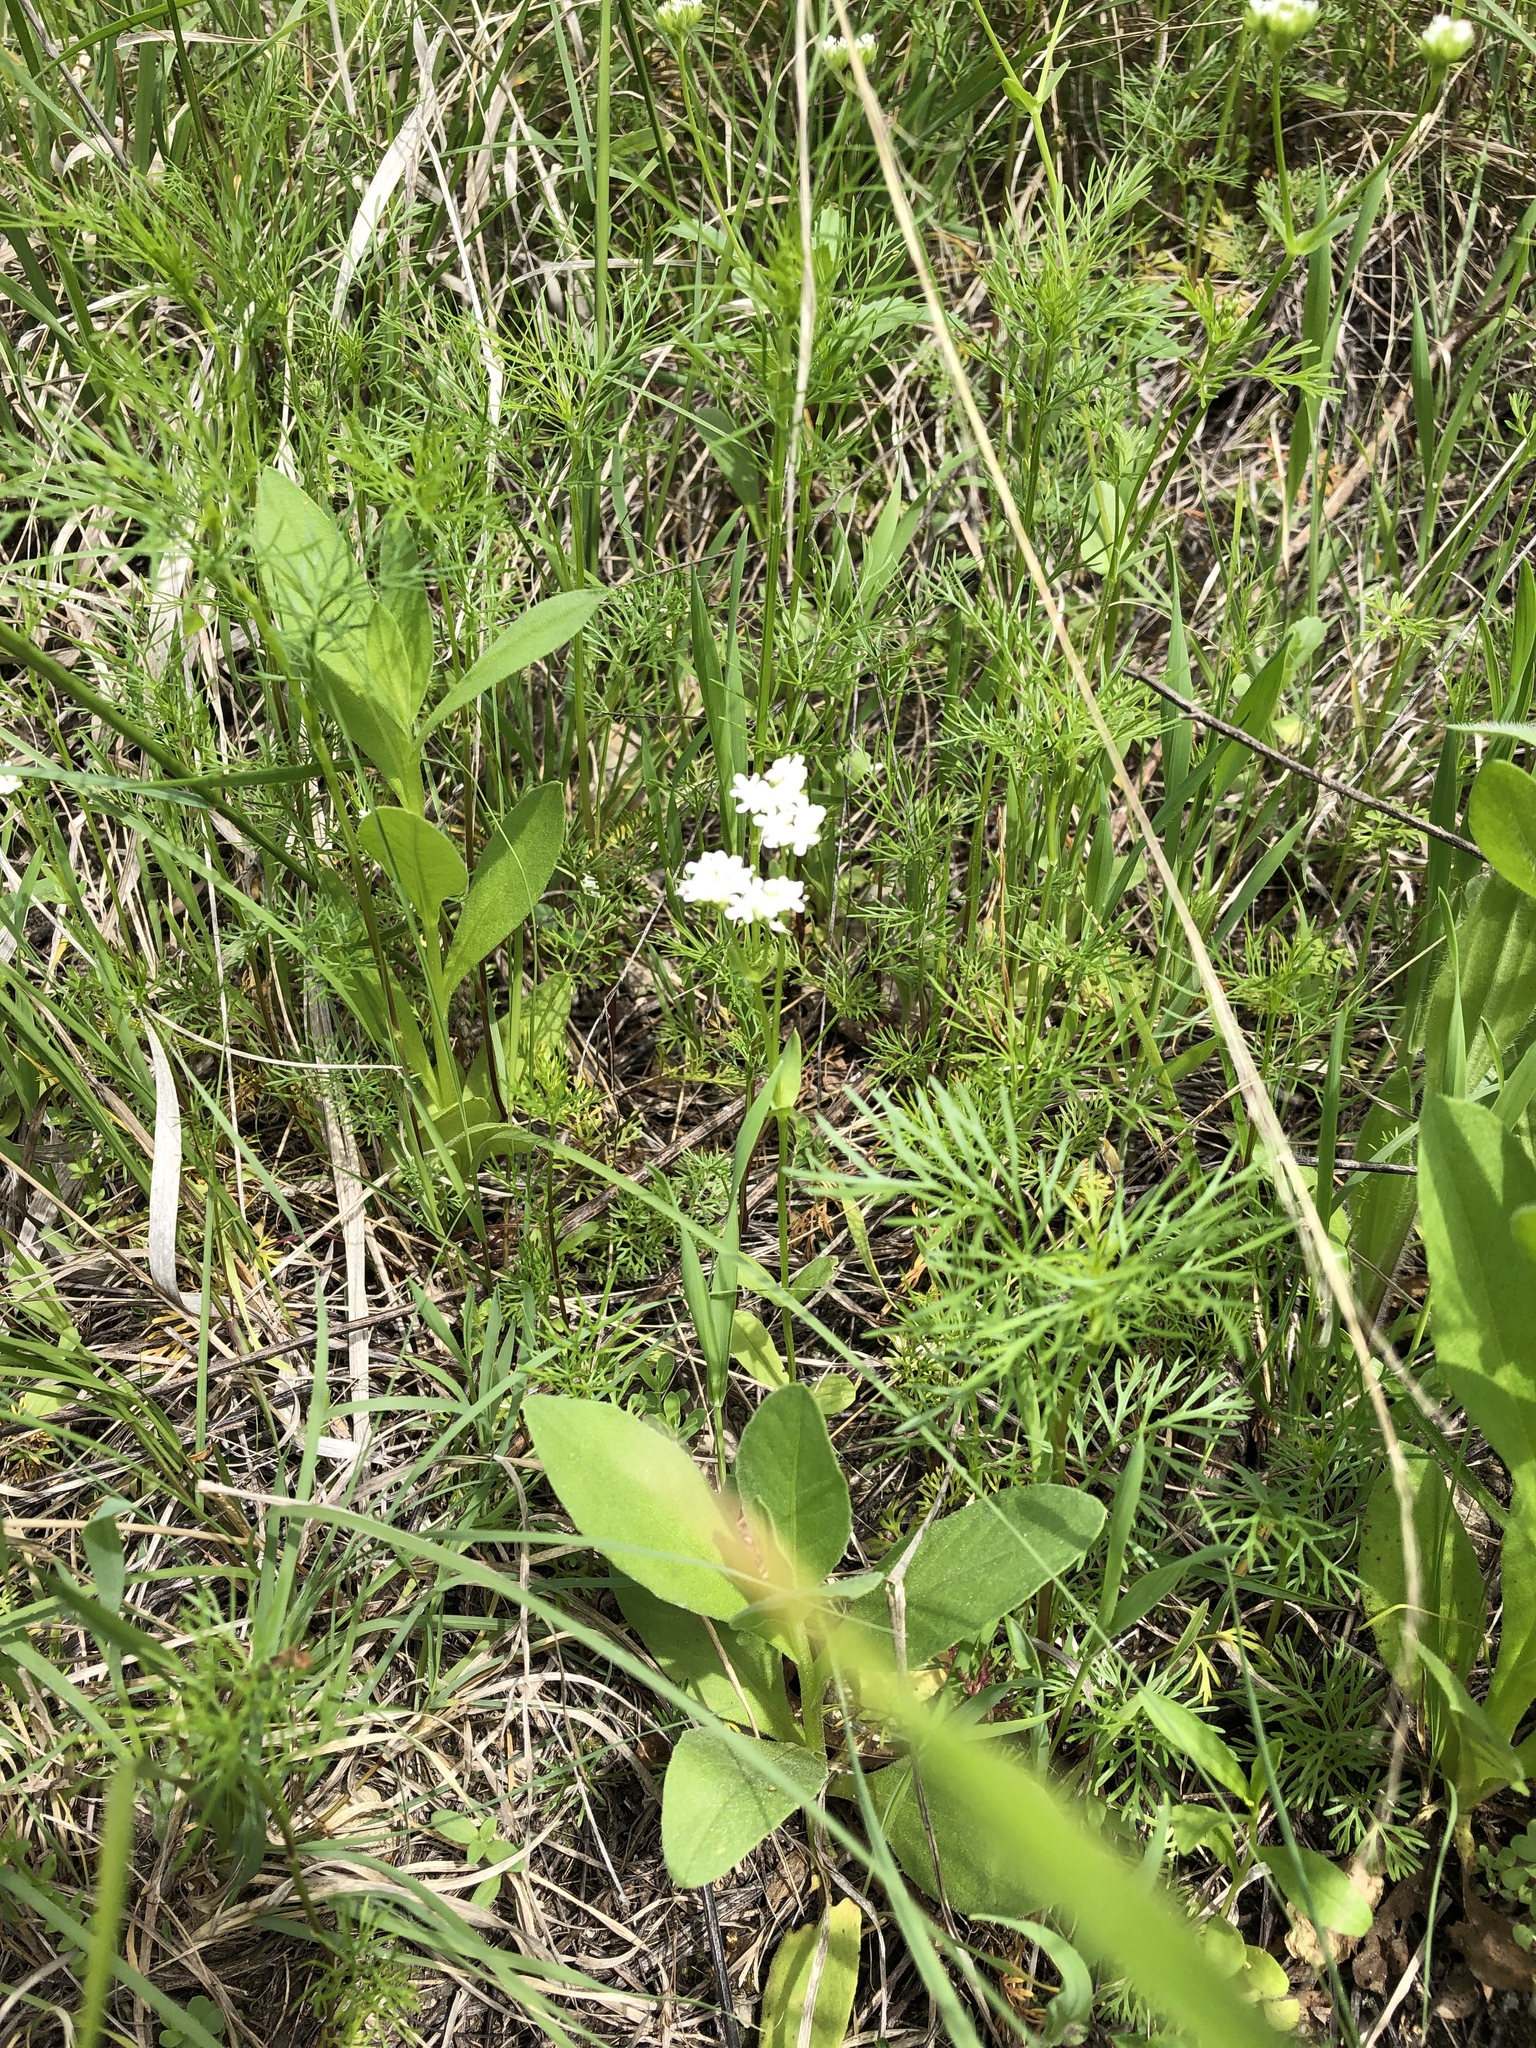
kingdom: Plantae
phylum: Tracheophyta
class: Magnoliopsida
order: Dipsacales
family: Caprifoliaceae
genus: Valerianella
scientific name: Valerianella amarella
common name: Hariy cornsalad
